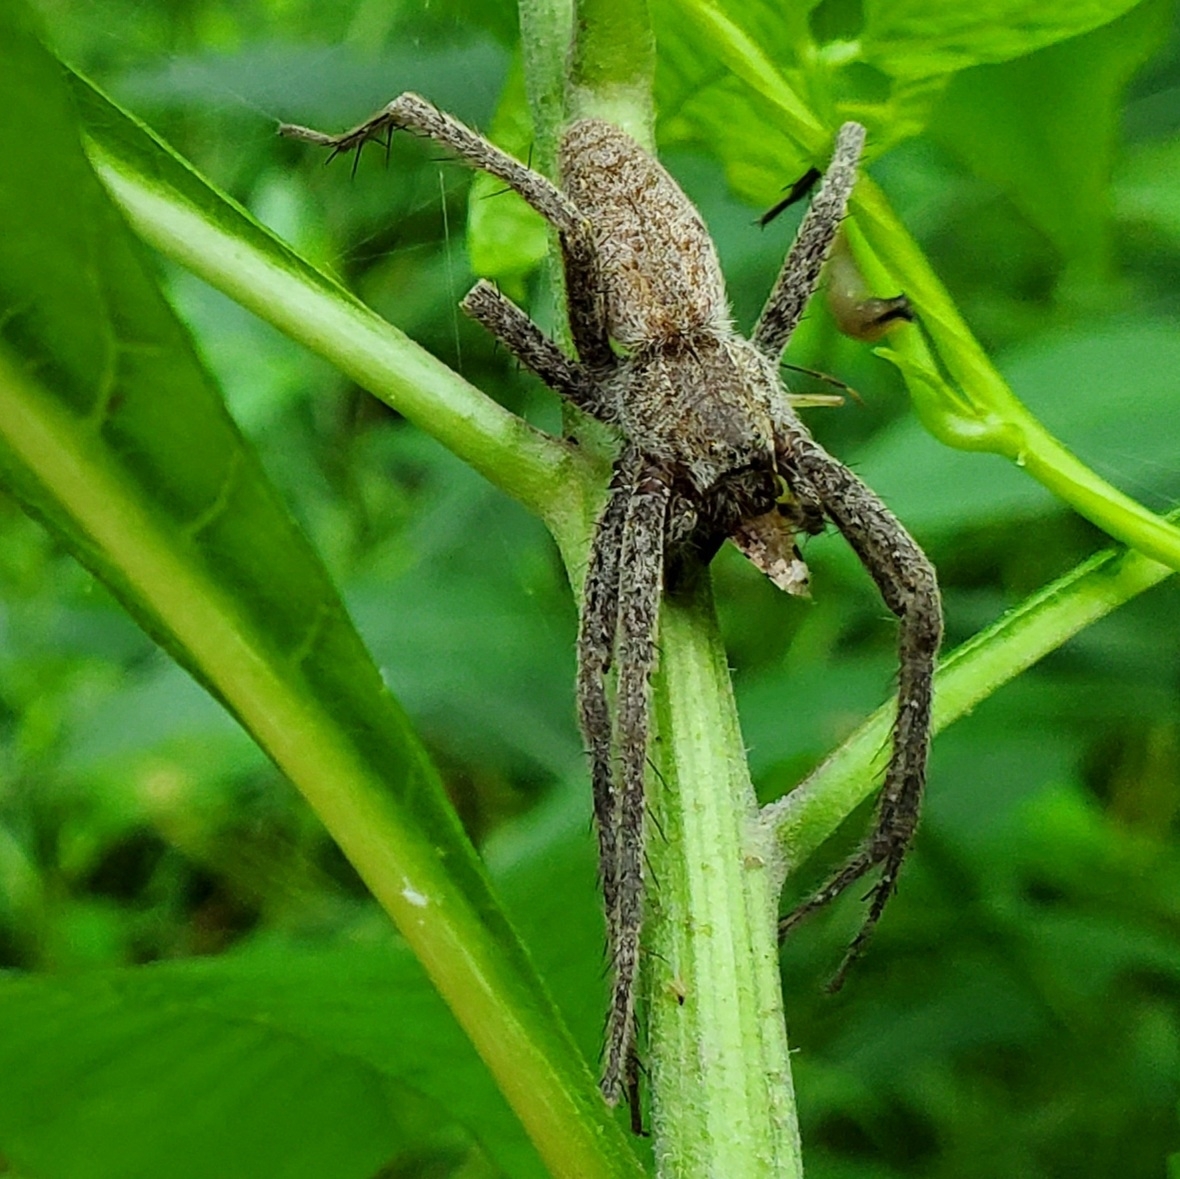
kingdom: Animalia
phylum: Arthropoda
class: Arachnida
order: Araneae
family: Pisauridae
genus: Pisaurina
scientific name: Pisaurina mira
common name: American nursery web spider
